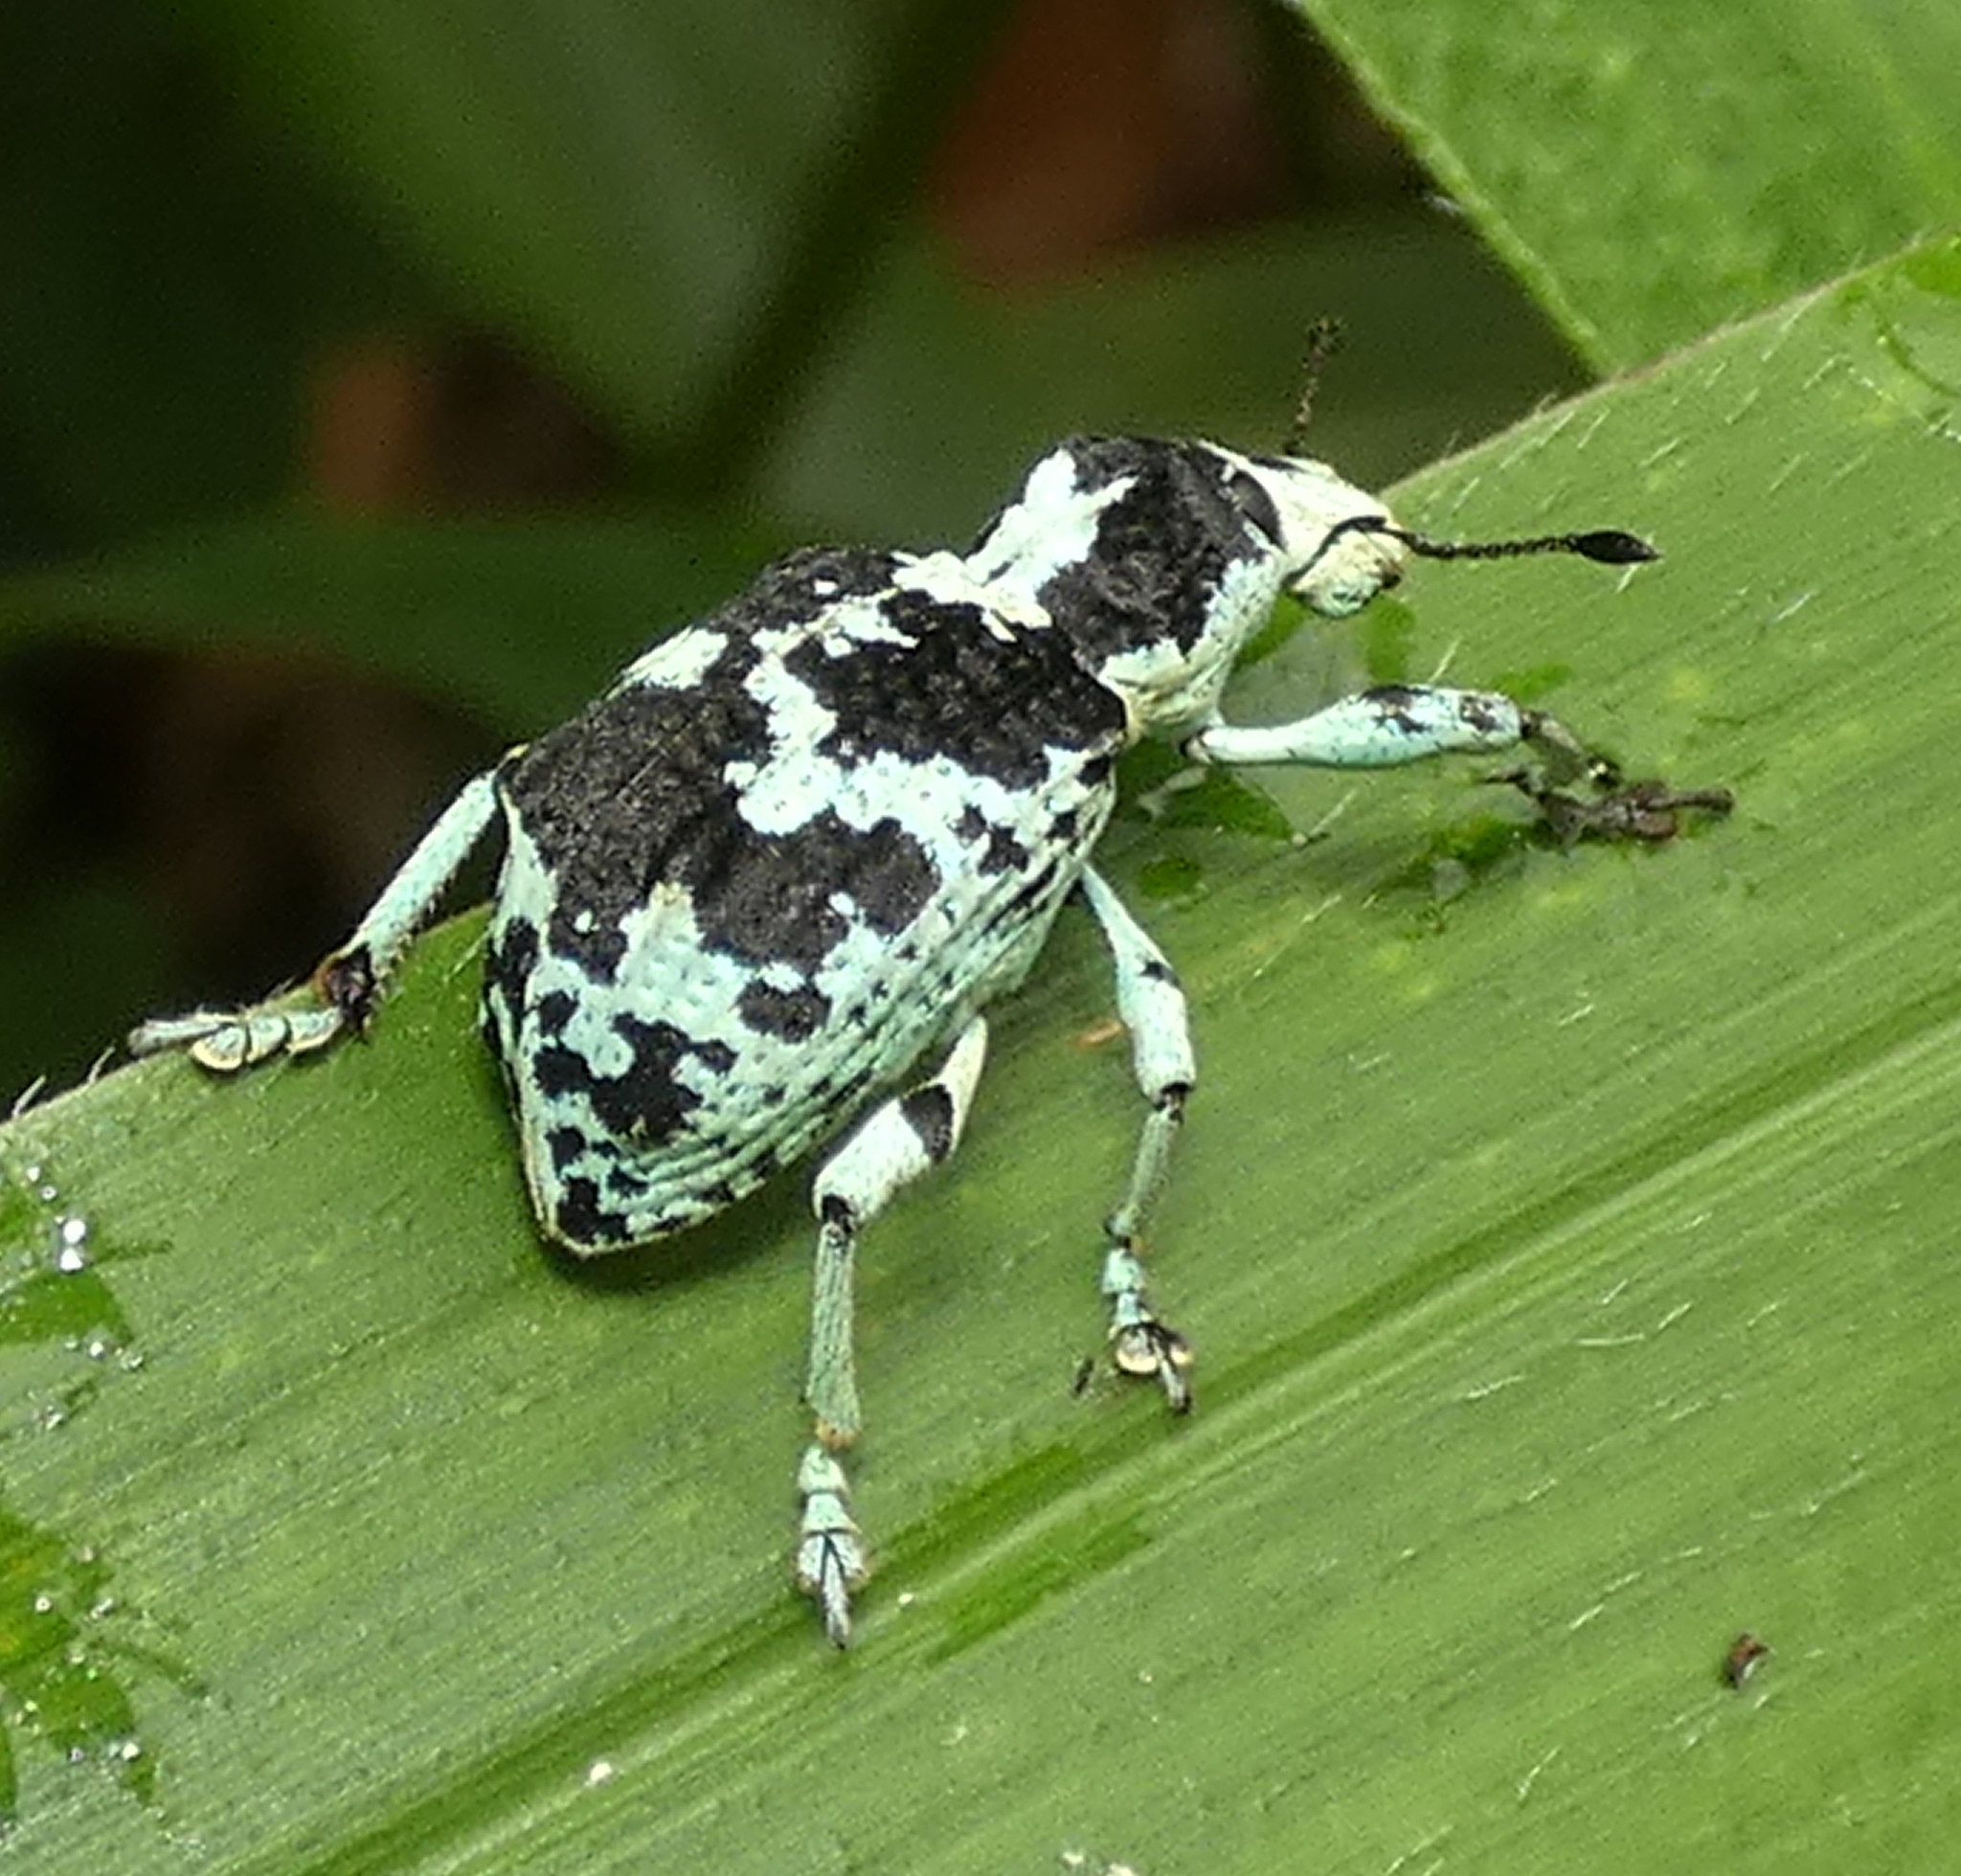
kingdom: Animalia
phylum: Arthropoda
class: Insecta
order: Coleoptera
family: Curculionidae
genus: Rhigus
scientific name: Rhigus dejeanii
